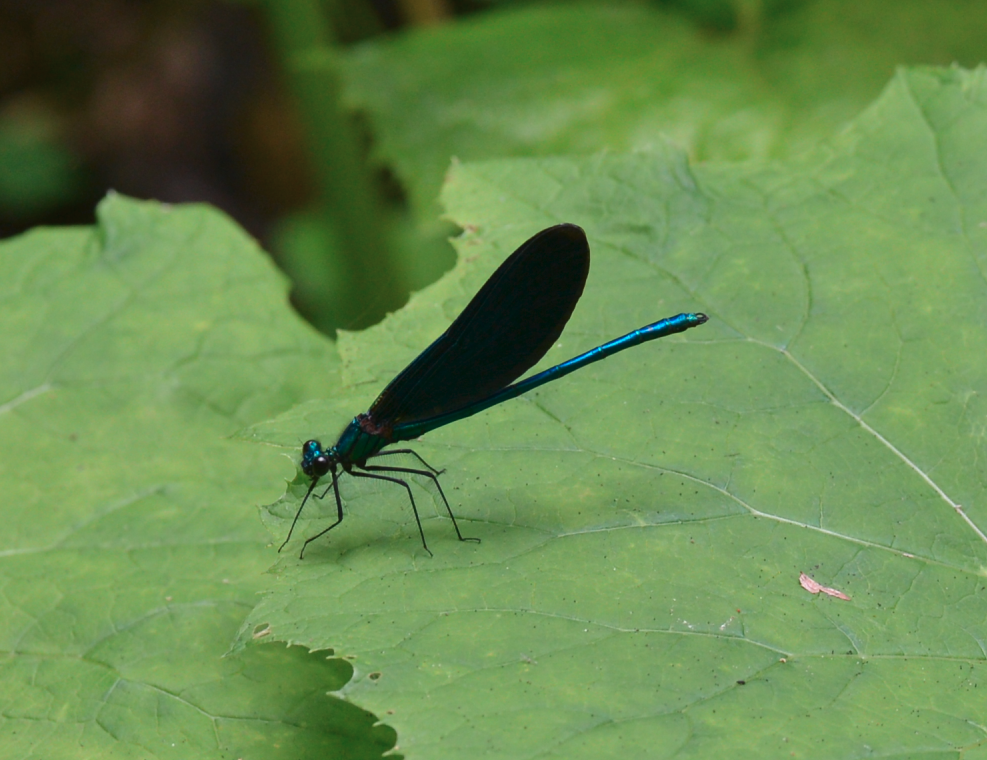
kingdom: Animalia
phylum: Arthropoda
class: Insecta
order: Odonata
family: Calopterygidae
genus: Calopteryx
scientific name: Calopteryx virgo
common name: Beautiful demoiselle
